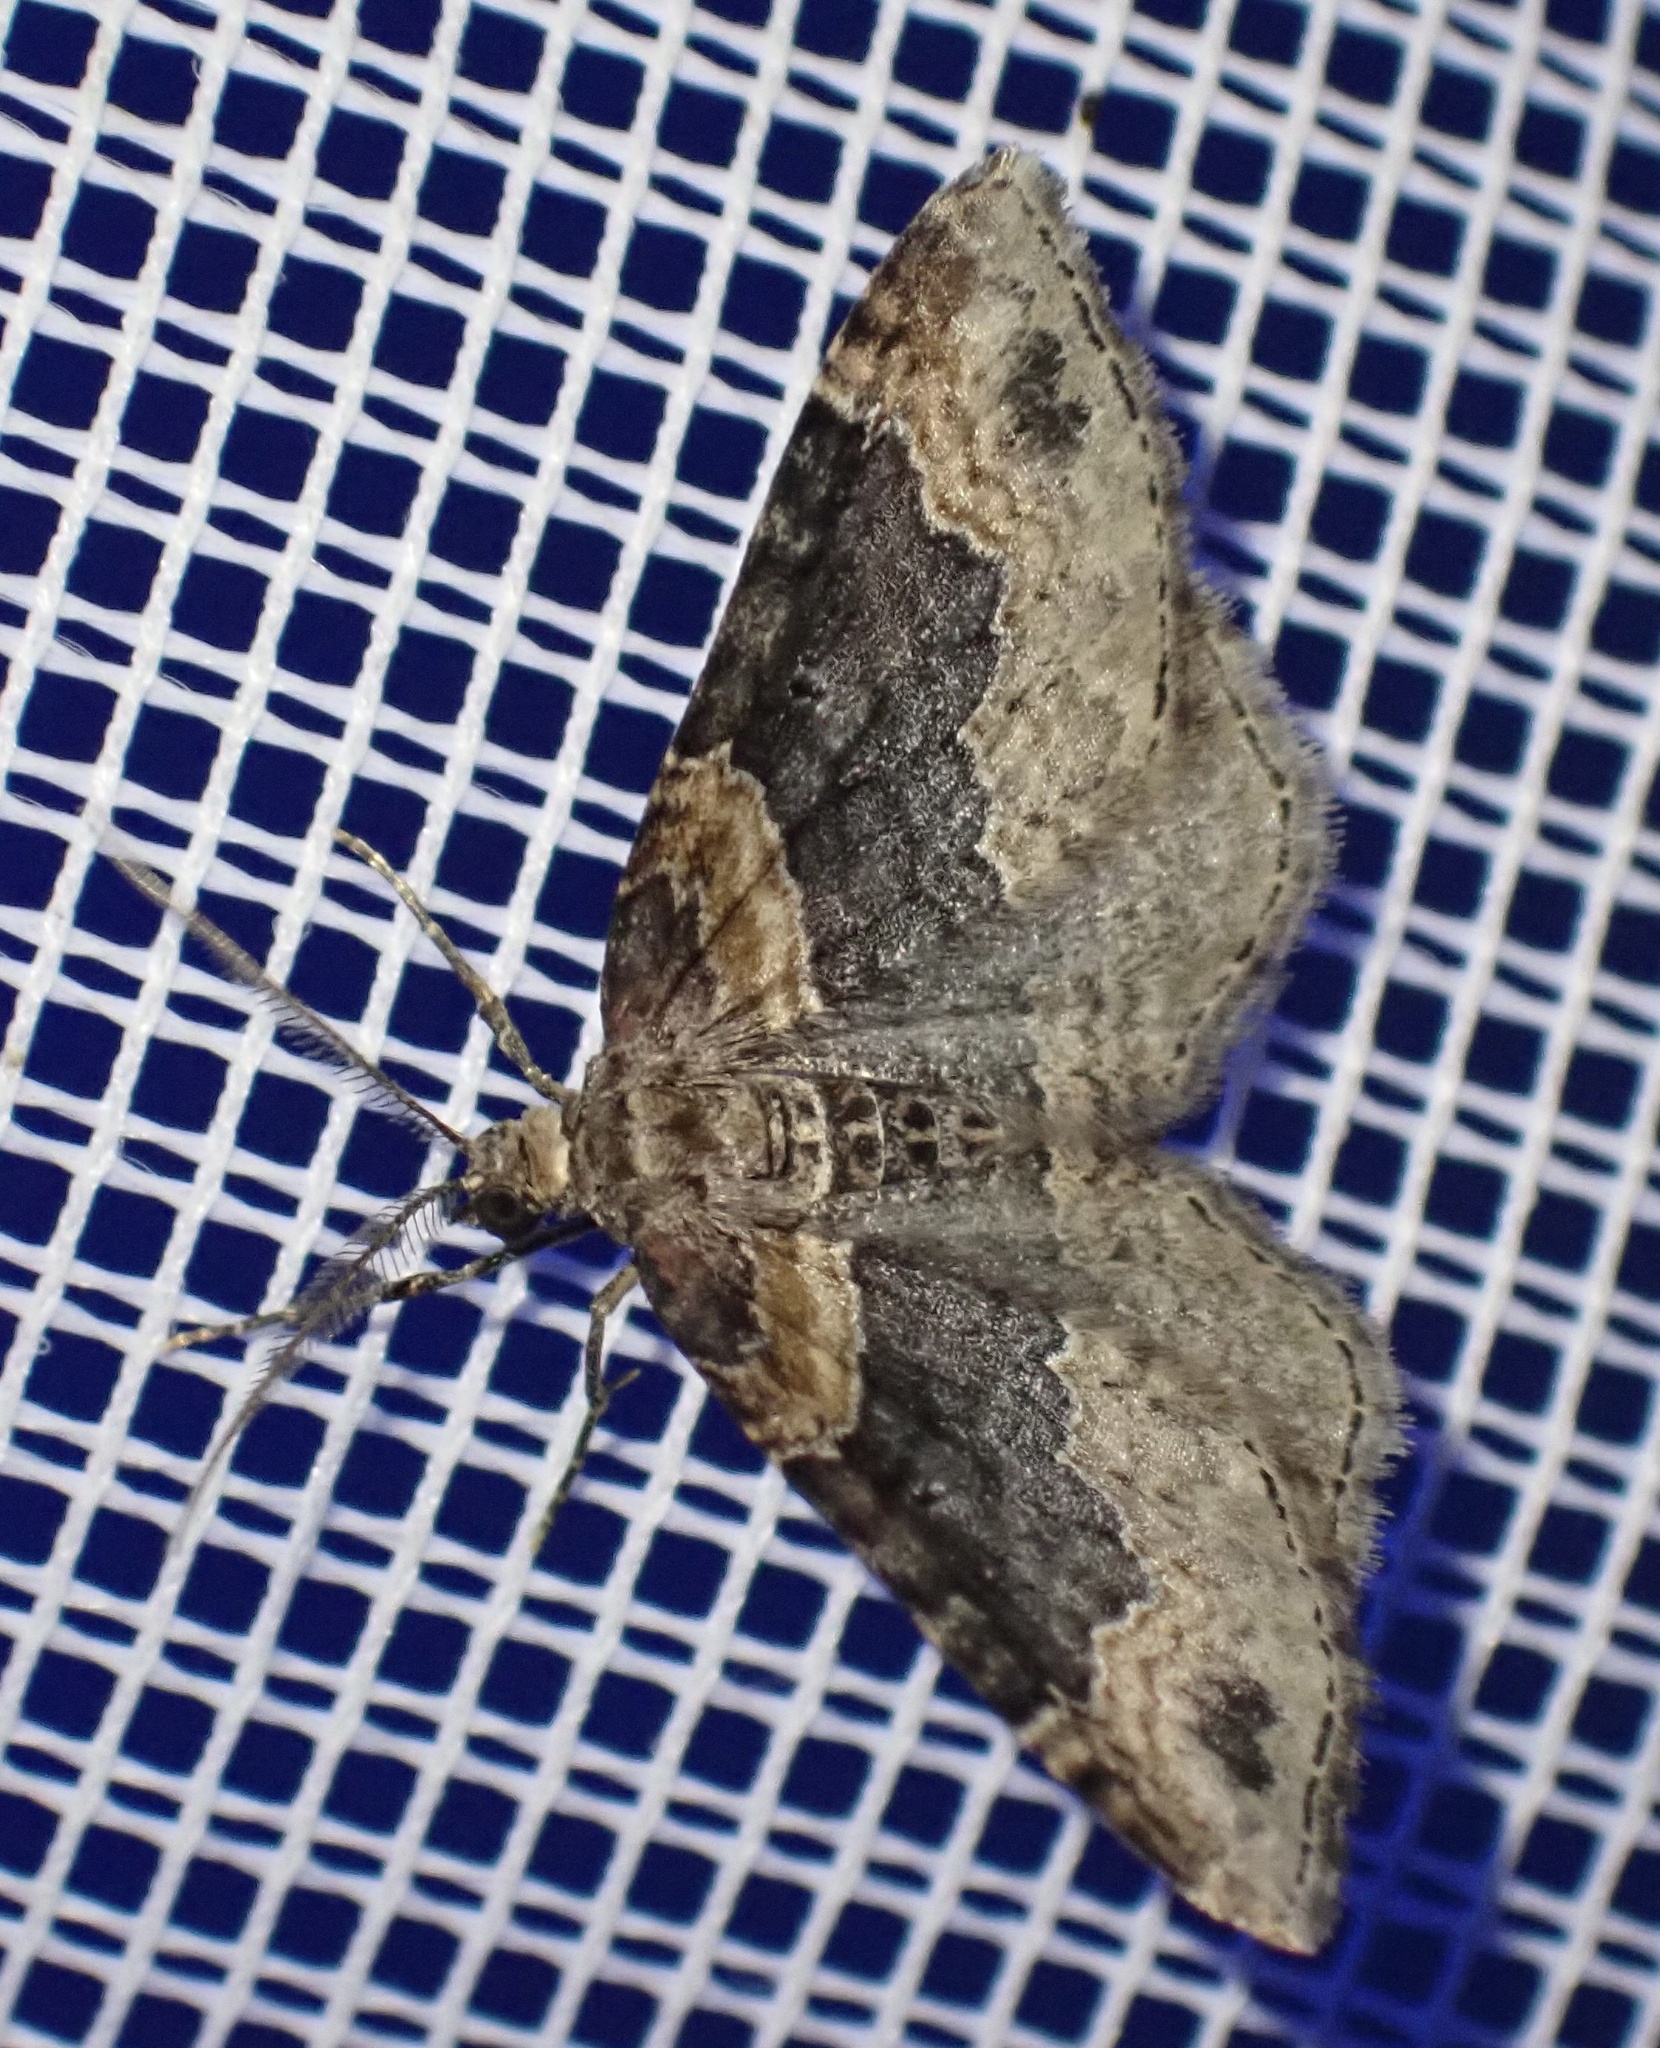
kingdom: Animalia
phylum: Arthropoda
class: Insecta
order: Lepidoptera
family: Geometridae
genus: Xanthorhoe
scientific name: Xanthorhoe ferrugata
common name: Dark-barred twin-spot carpet
